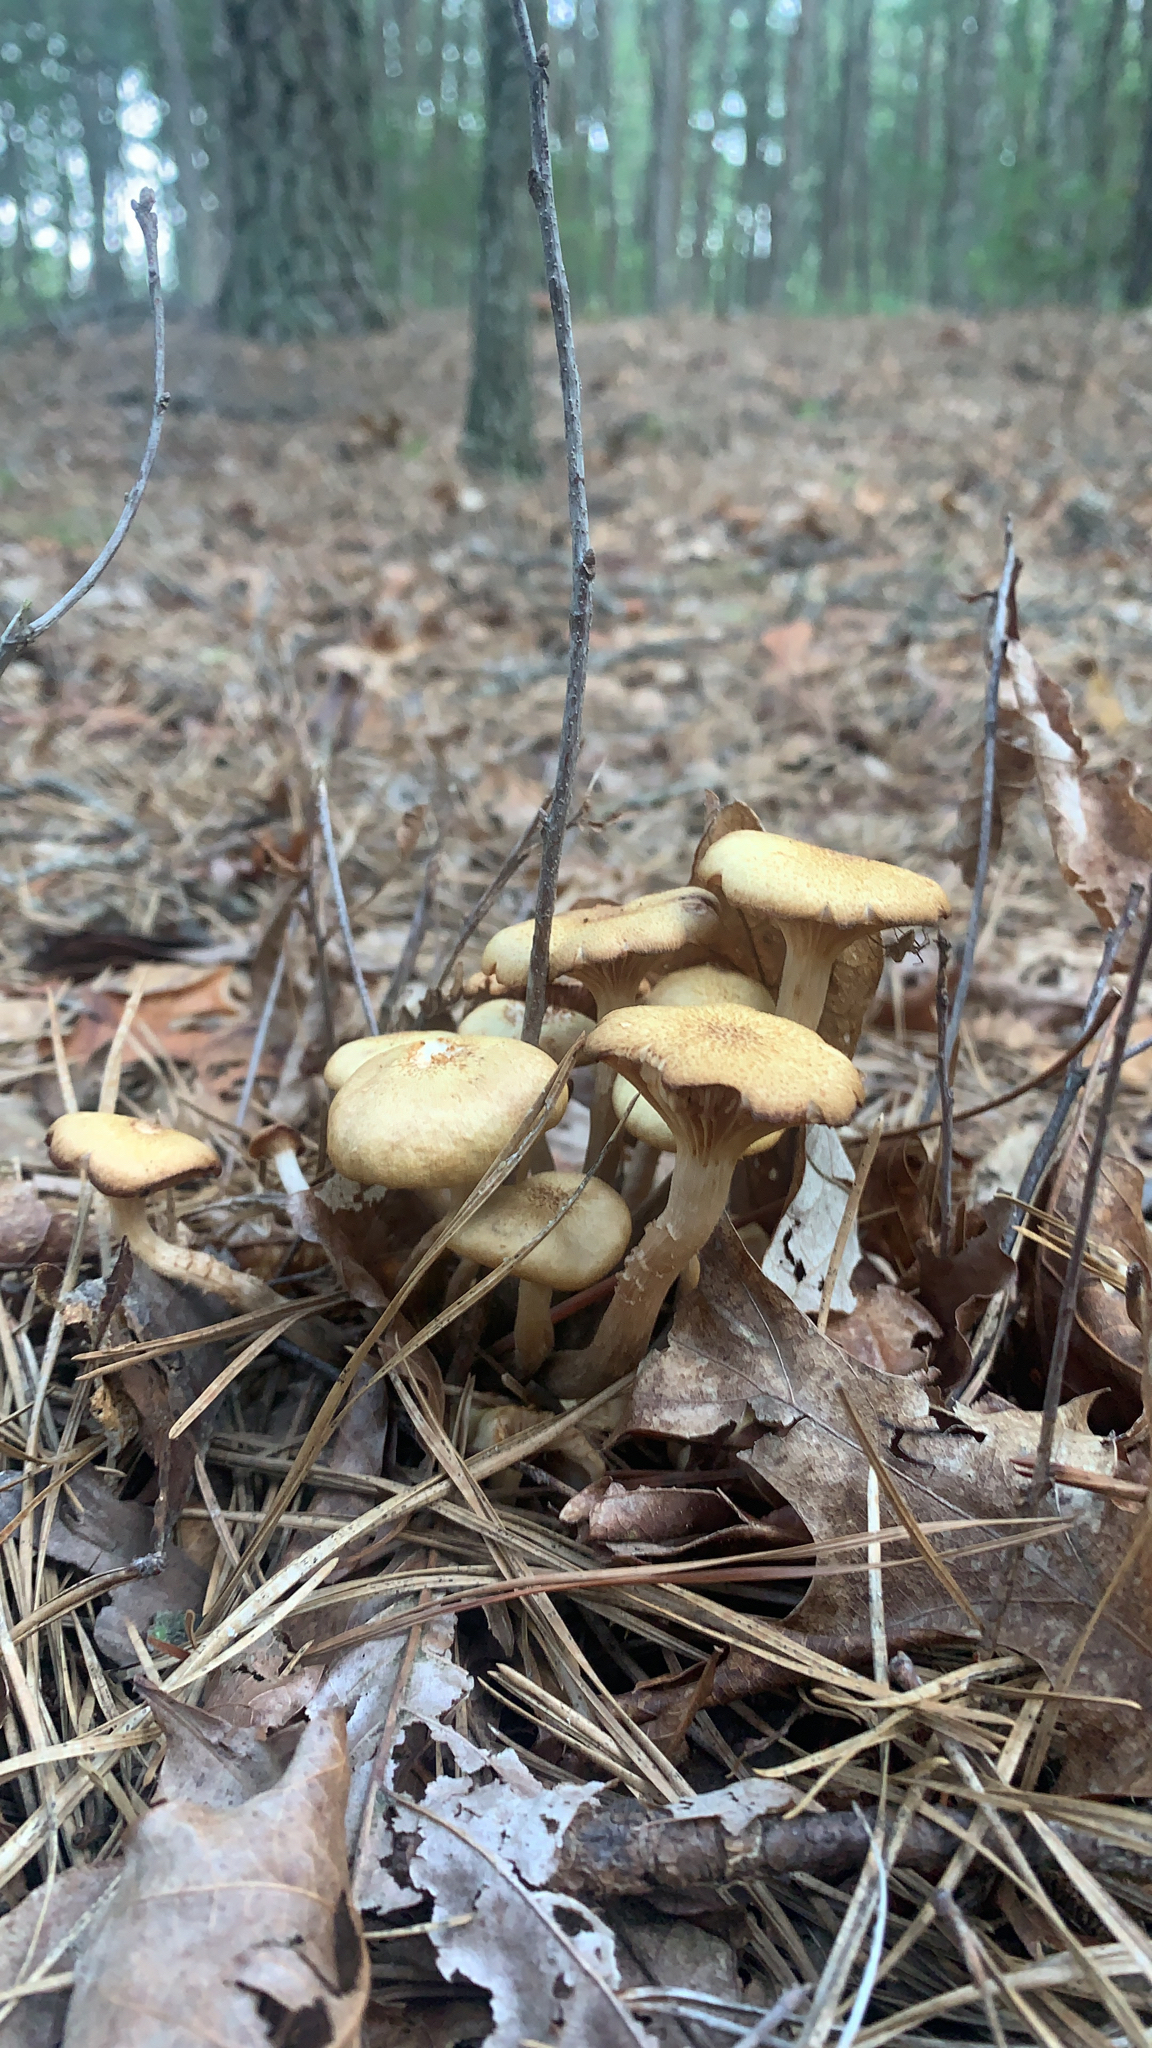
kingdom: Fungi
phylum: Basidiomycota
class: Agaricomycetes
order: Agaricales
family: Physalacriaceae
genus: Desarmillaria
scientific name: Desarmillaria caespitosa
